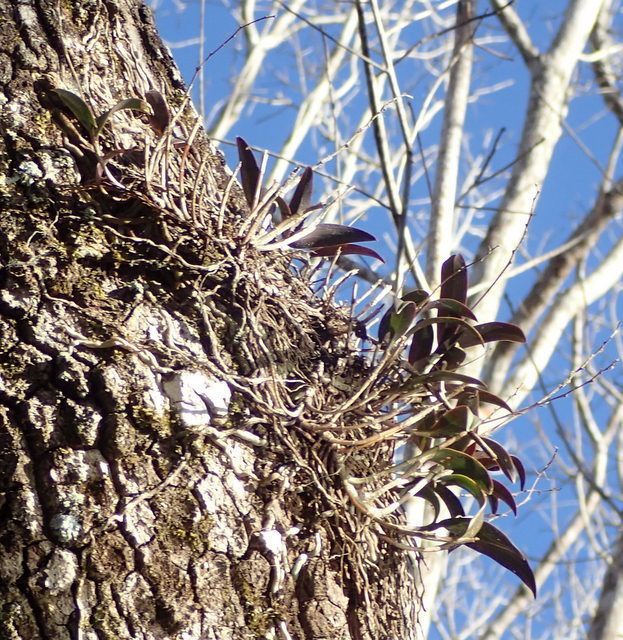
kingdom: Plantae
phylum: Tracheophyta
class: Liliopsida
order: Asparagales
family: Orchidaceae
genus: Epidendrum
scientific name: Epidendrum conopseum
